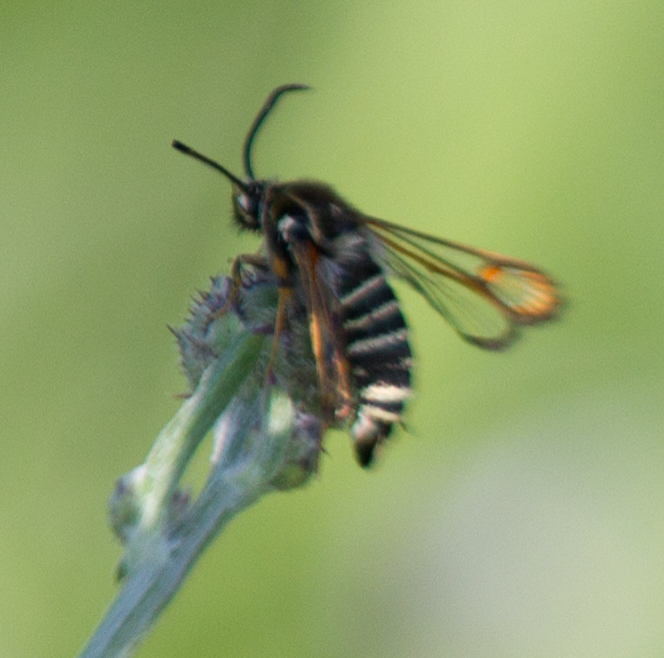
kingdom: Animalia
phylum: Arthropoda
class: Insecta
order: Lepidoptera
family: Sesiidae
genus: Bembecia
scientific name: Bembecia ichneumoniformis
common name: Six-belted clearwing
